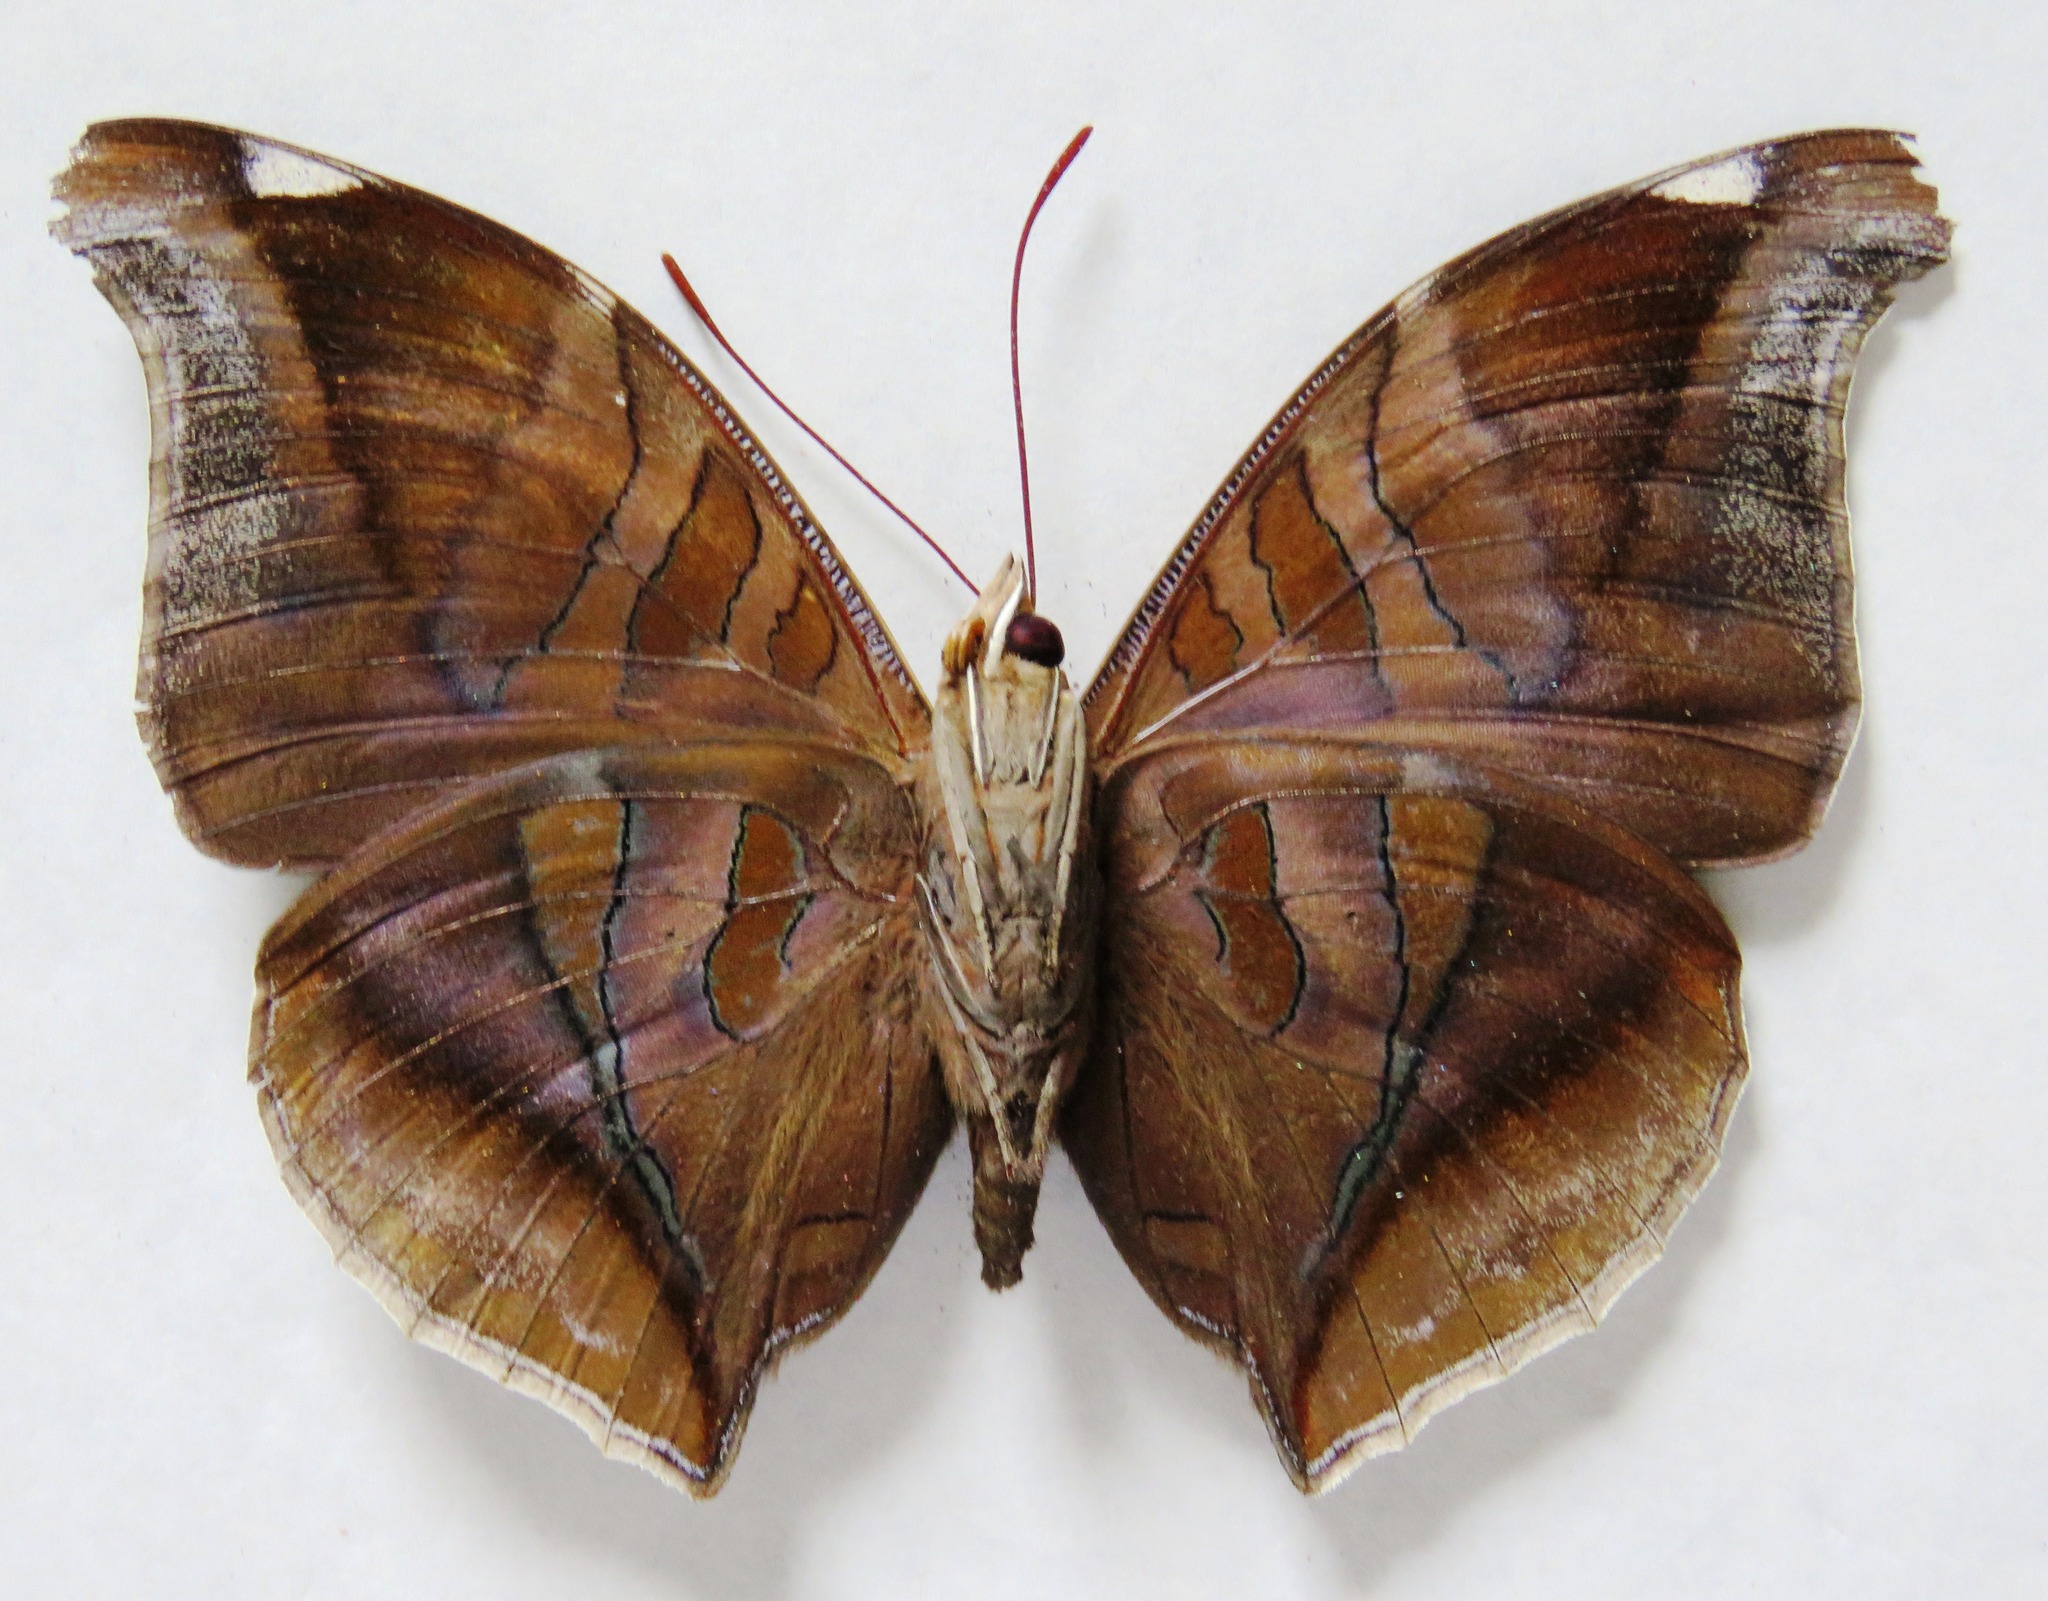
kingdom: Animalia
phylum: Arthropoda
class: Insecta
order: Lepidoptera
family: Nymphalidae
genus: Historis
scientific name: Historis odius
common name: Orion cecropian
